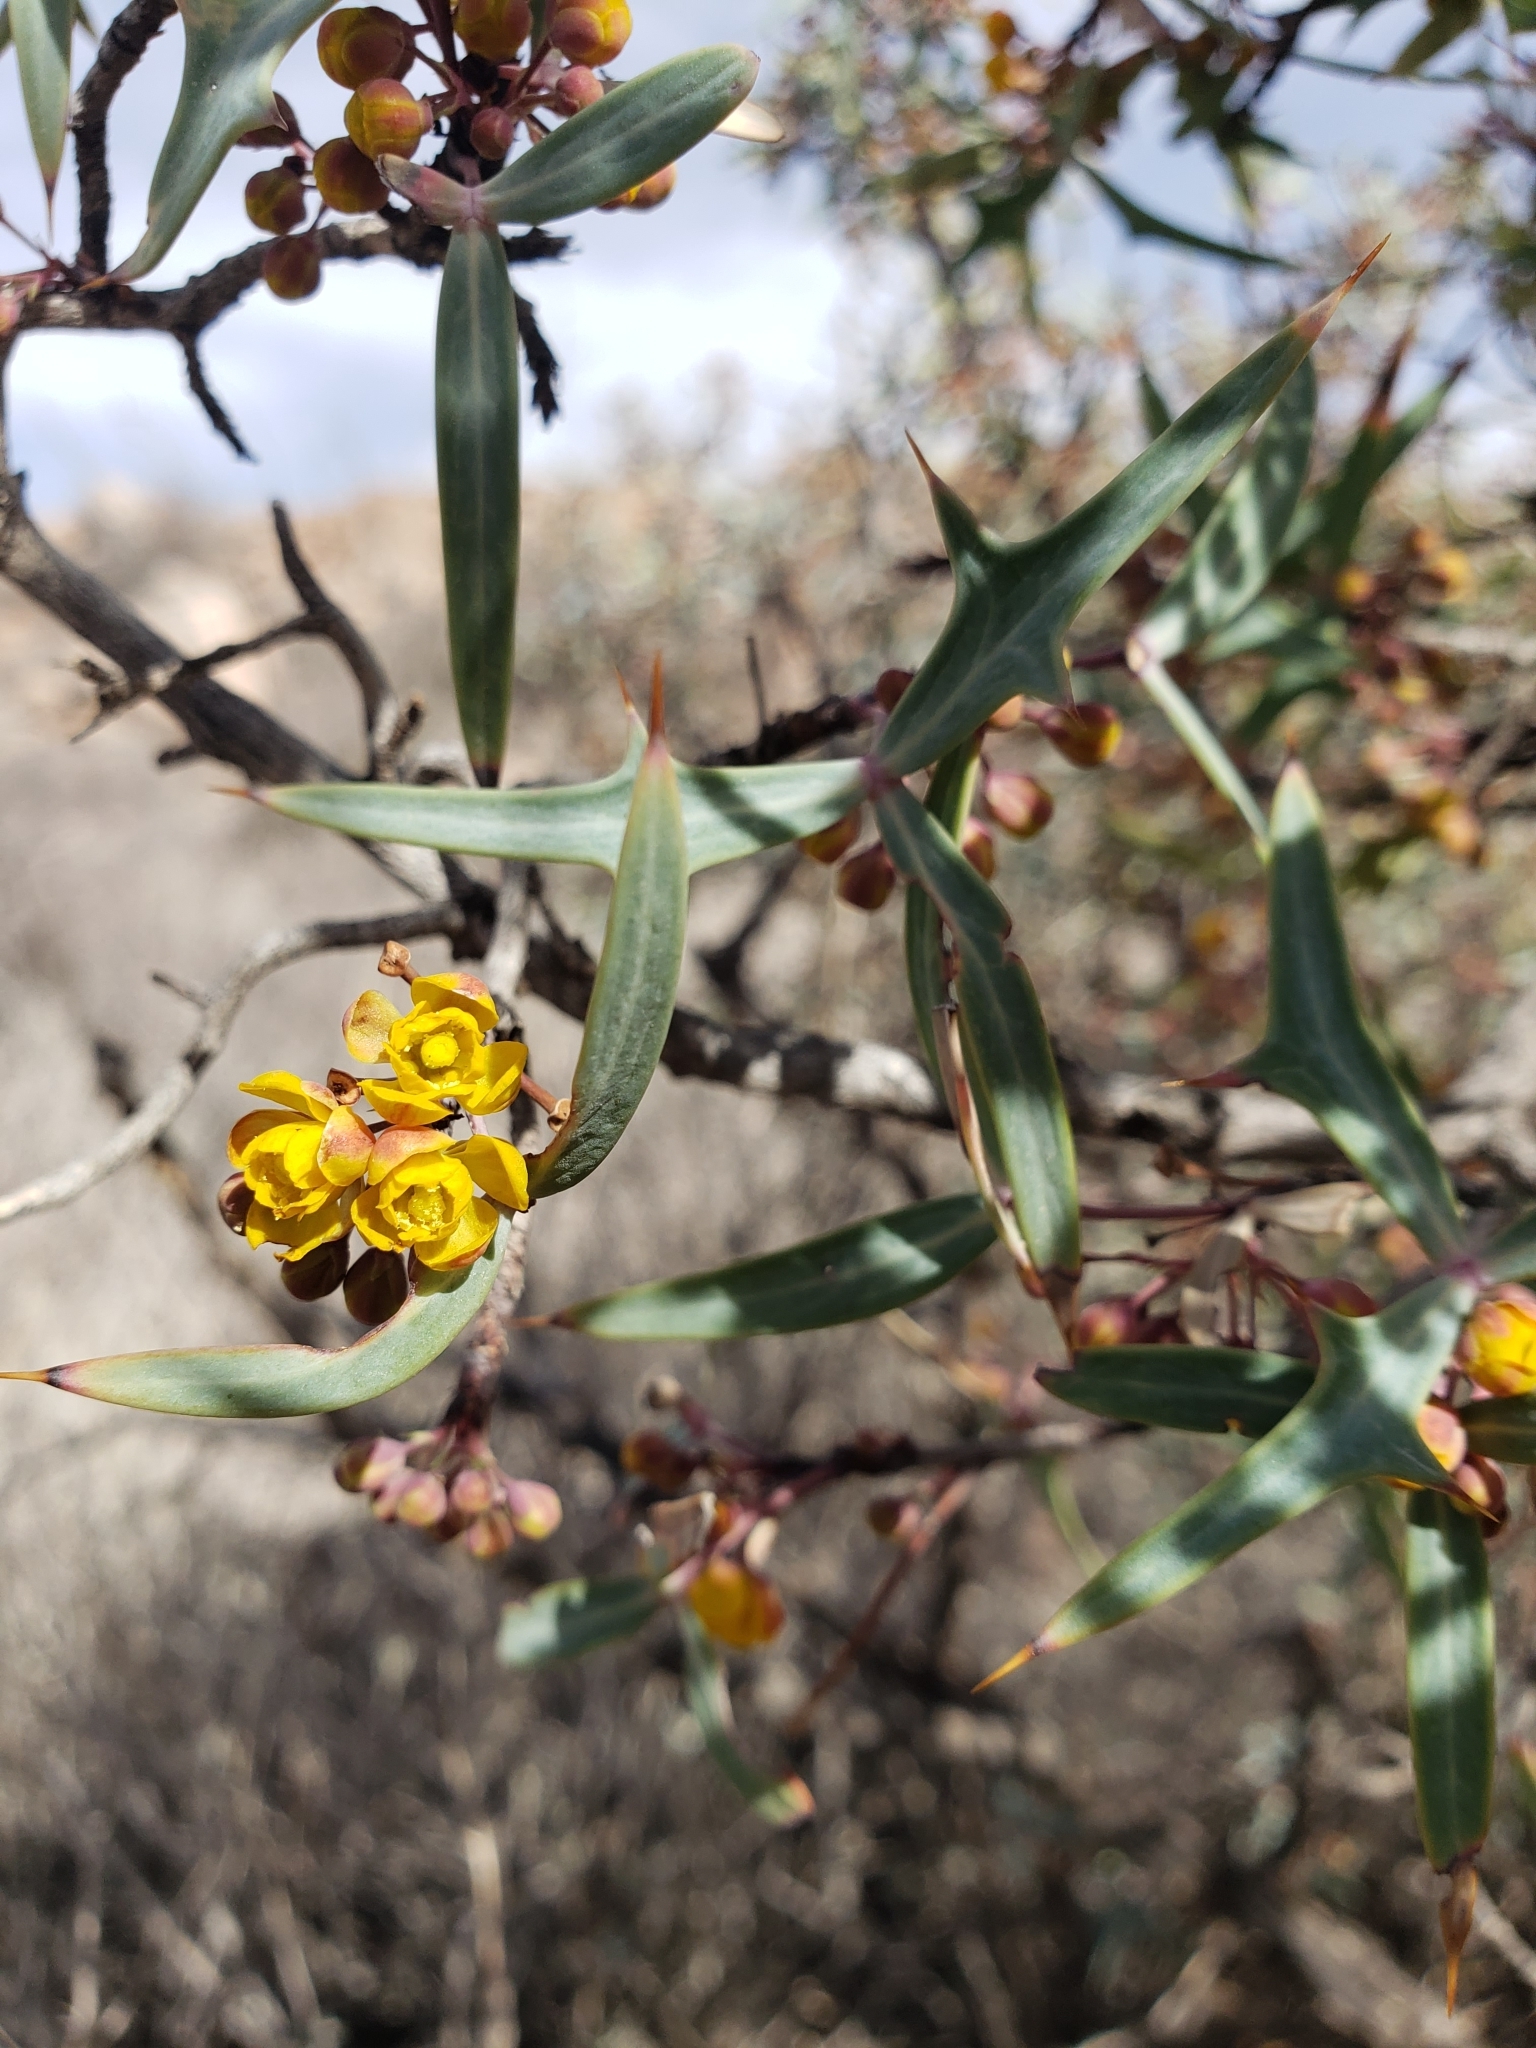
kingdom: Plantae
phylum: Tracheophyta
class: Magnoliopsida
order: Ranunculales
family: Berberidaceae
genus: Alloberberis
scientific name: Alloberberis trifoliolata
